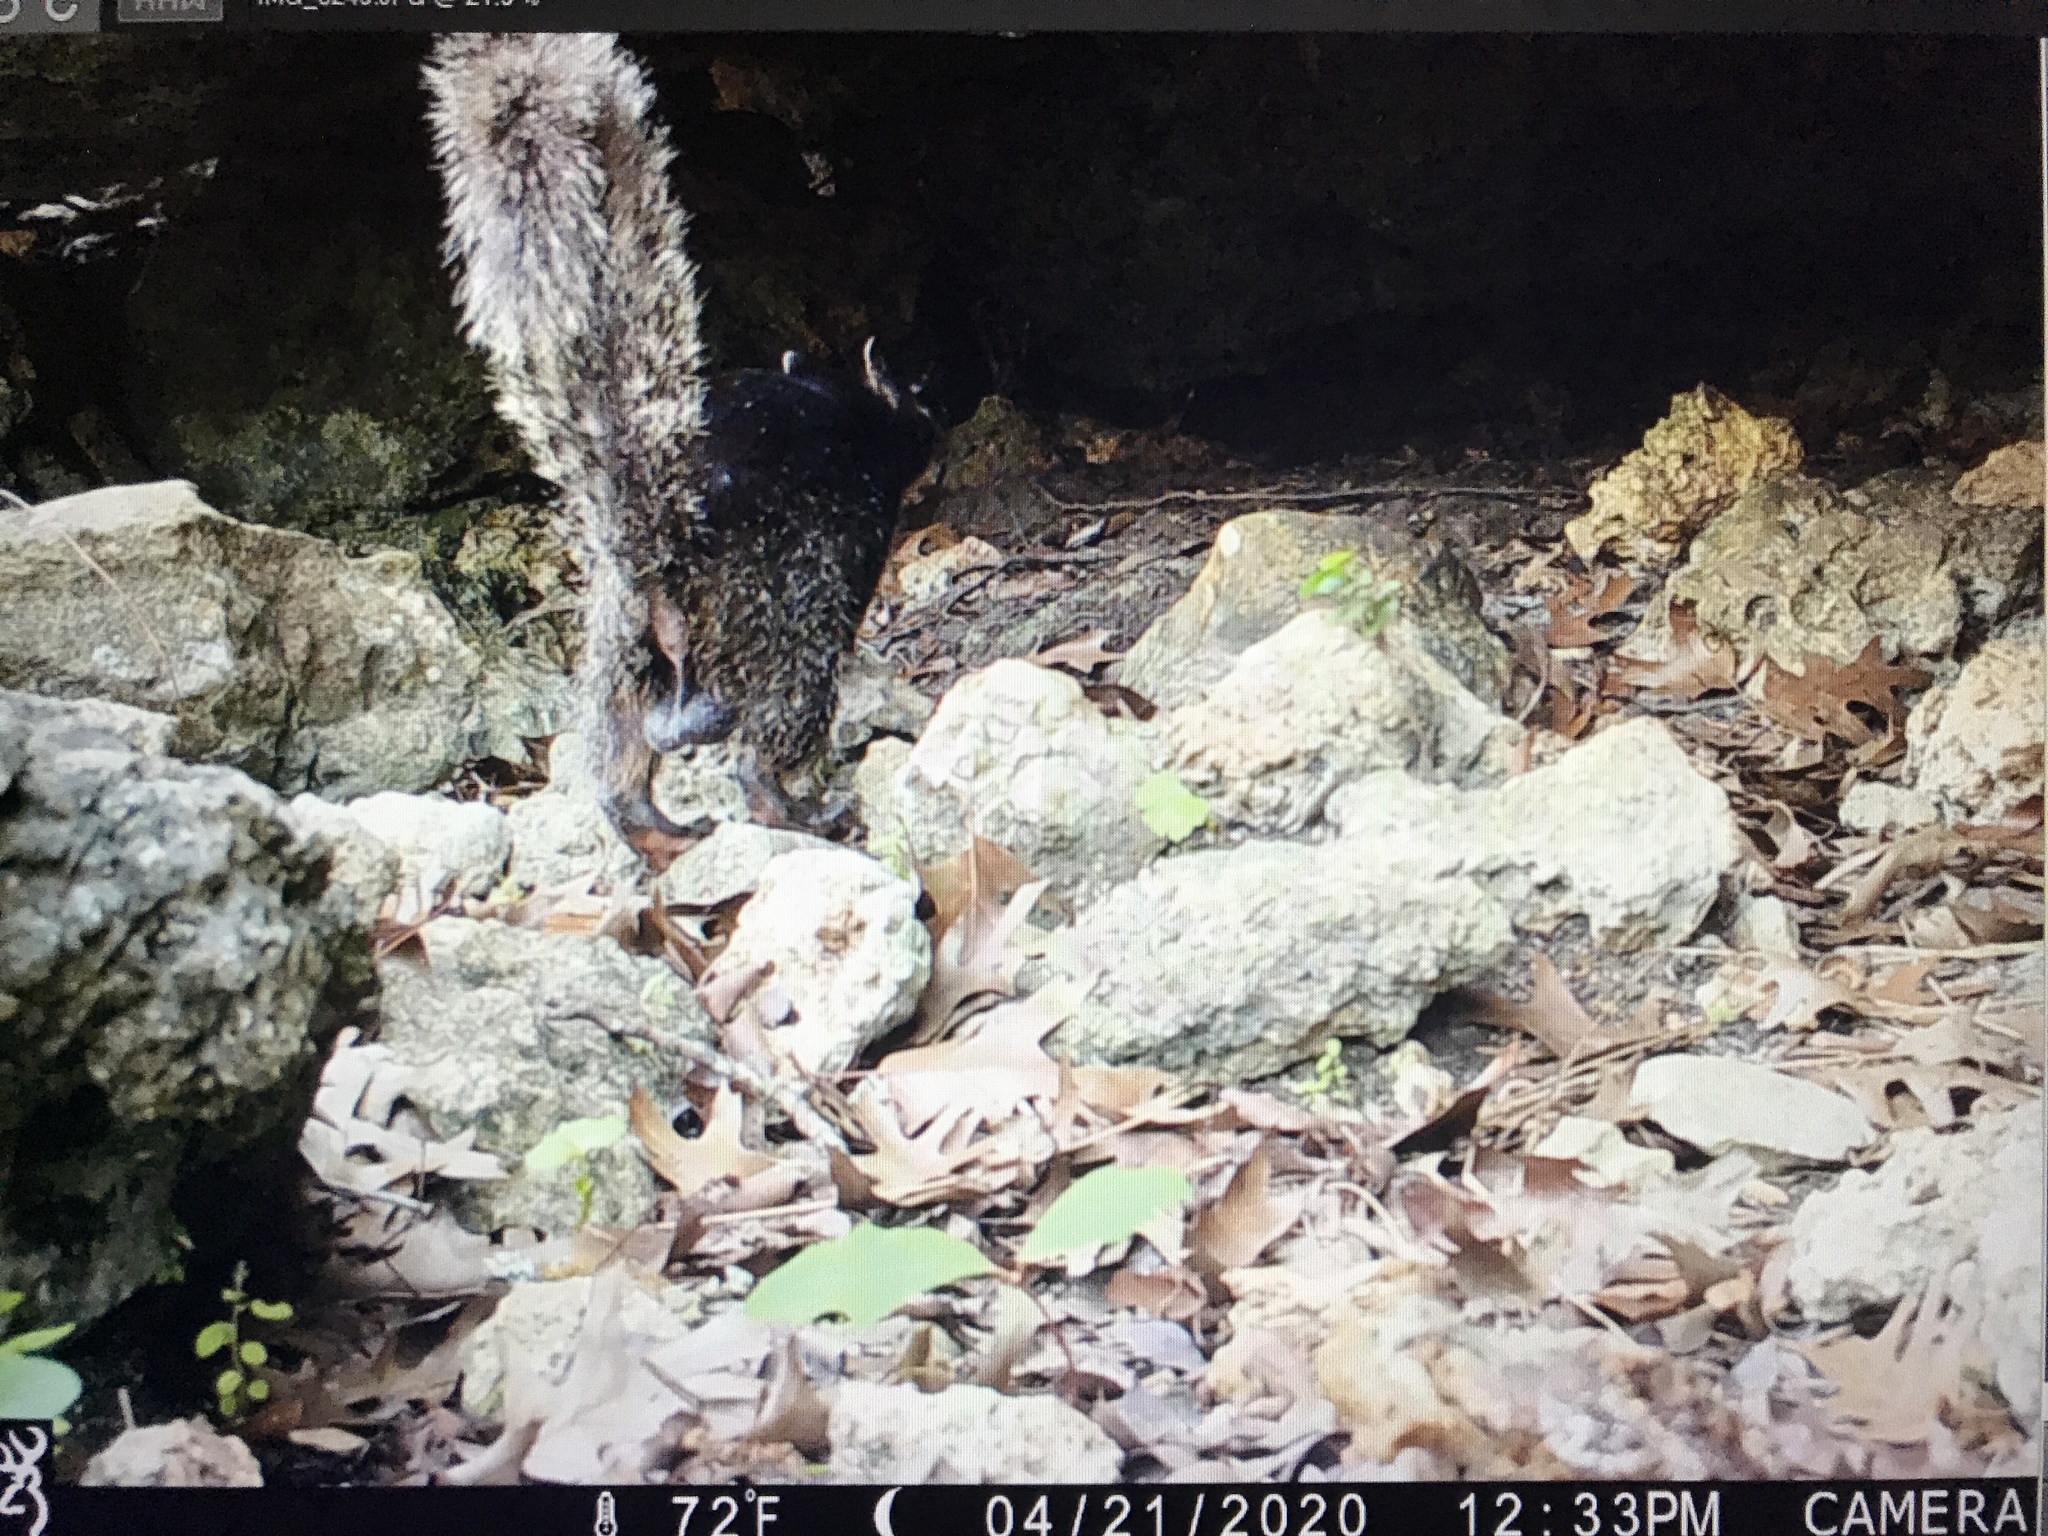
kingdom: Animalia
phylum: Chordata
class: Mammalia
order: Rodentia
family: Sciuridae
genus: Otospermophilus
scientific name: Otospermophilus variegatus
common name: Rock squirrel
